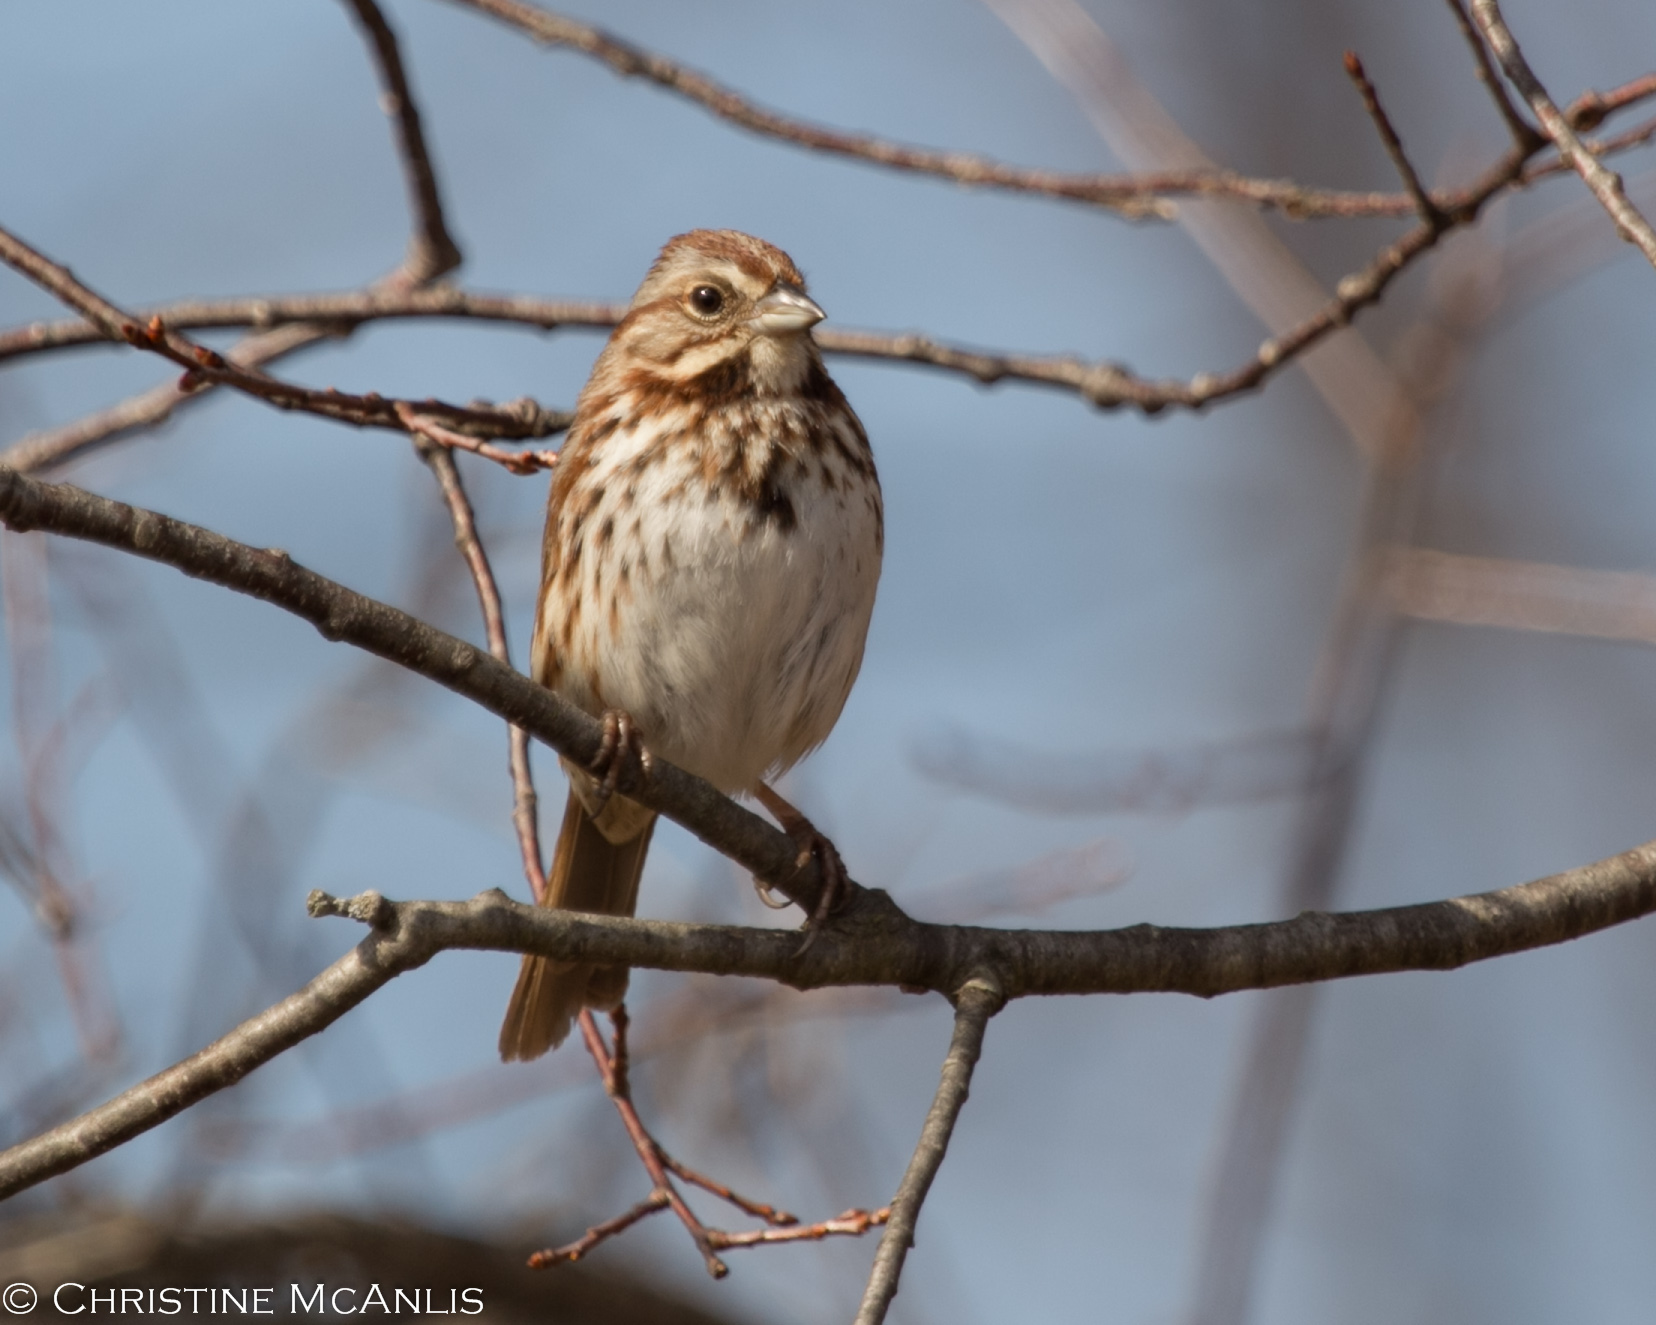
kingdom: Animalia
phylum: Chordata
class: Aves
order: Passeriformes
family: Passerellidae
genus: Melospiza
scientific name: Melospiza melodia
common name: Song sparrow
